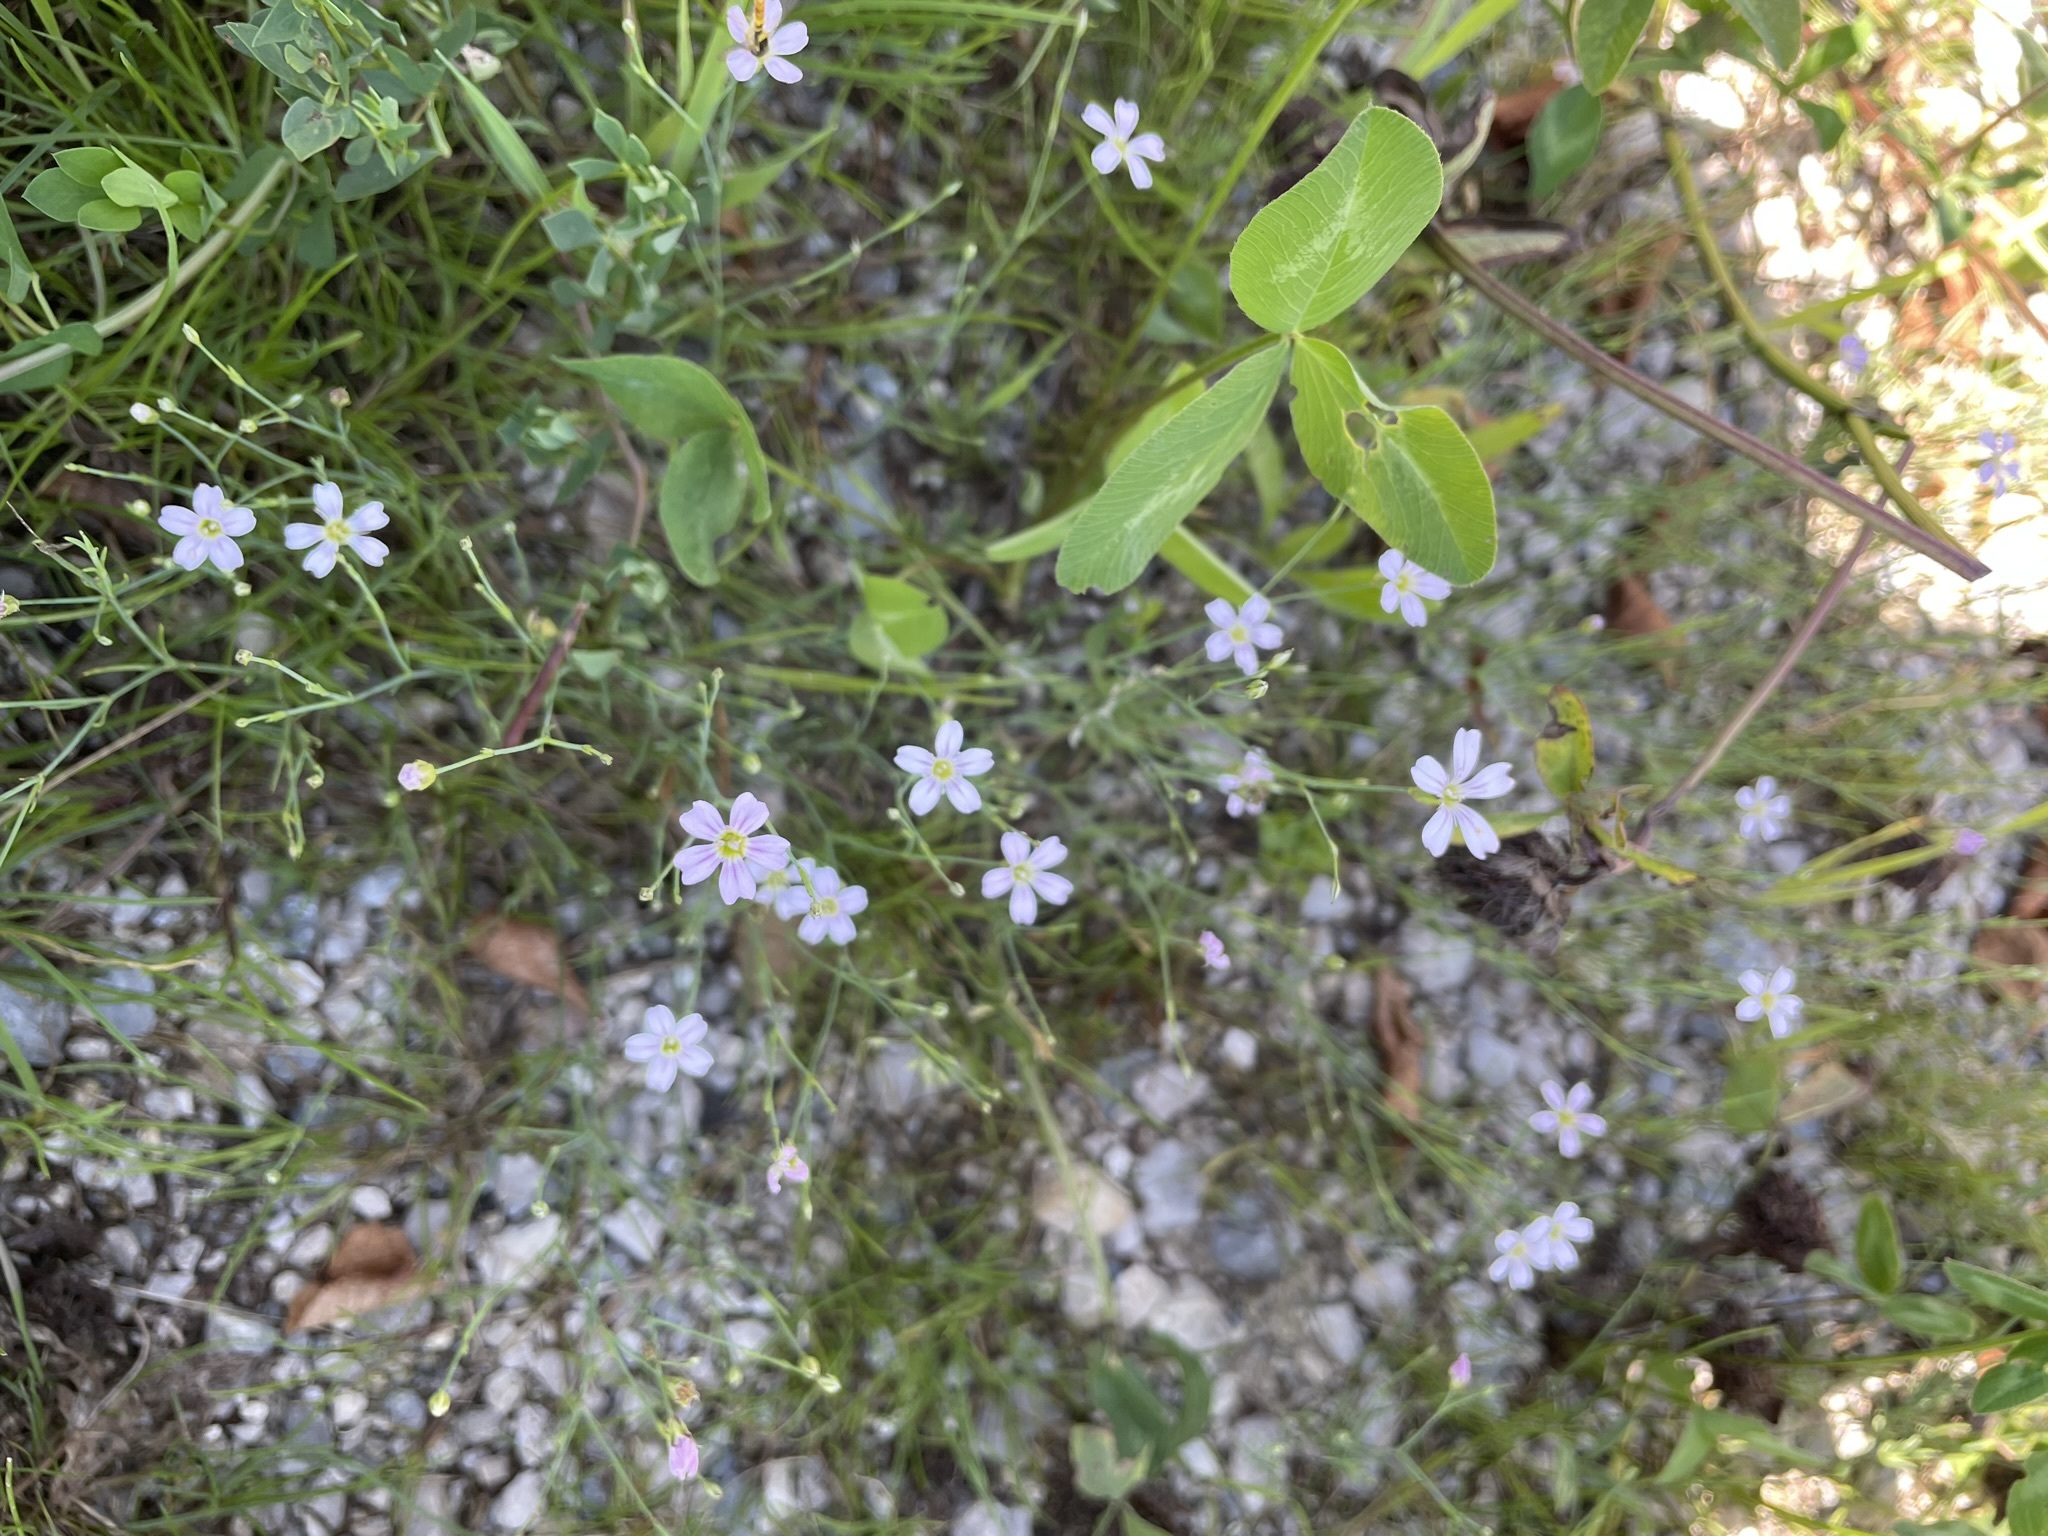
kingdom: Plantae
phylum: Tracheophyta
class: Magnoliopsida
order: Caryophyllales
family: Caryophyllaceae
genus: Petrorhagia
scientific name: Petrorhagia saxifraga
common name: Tunicflower
